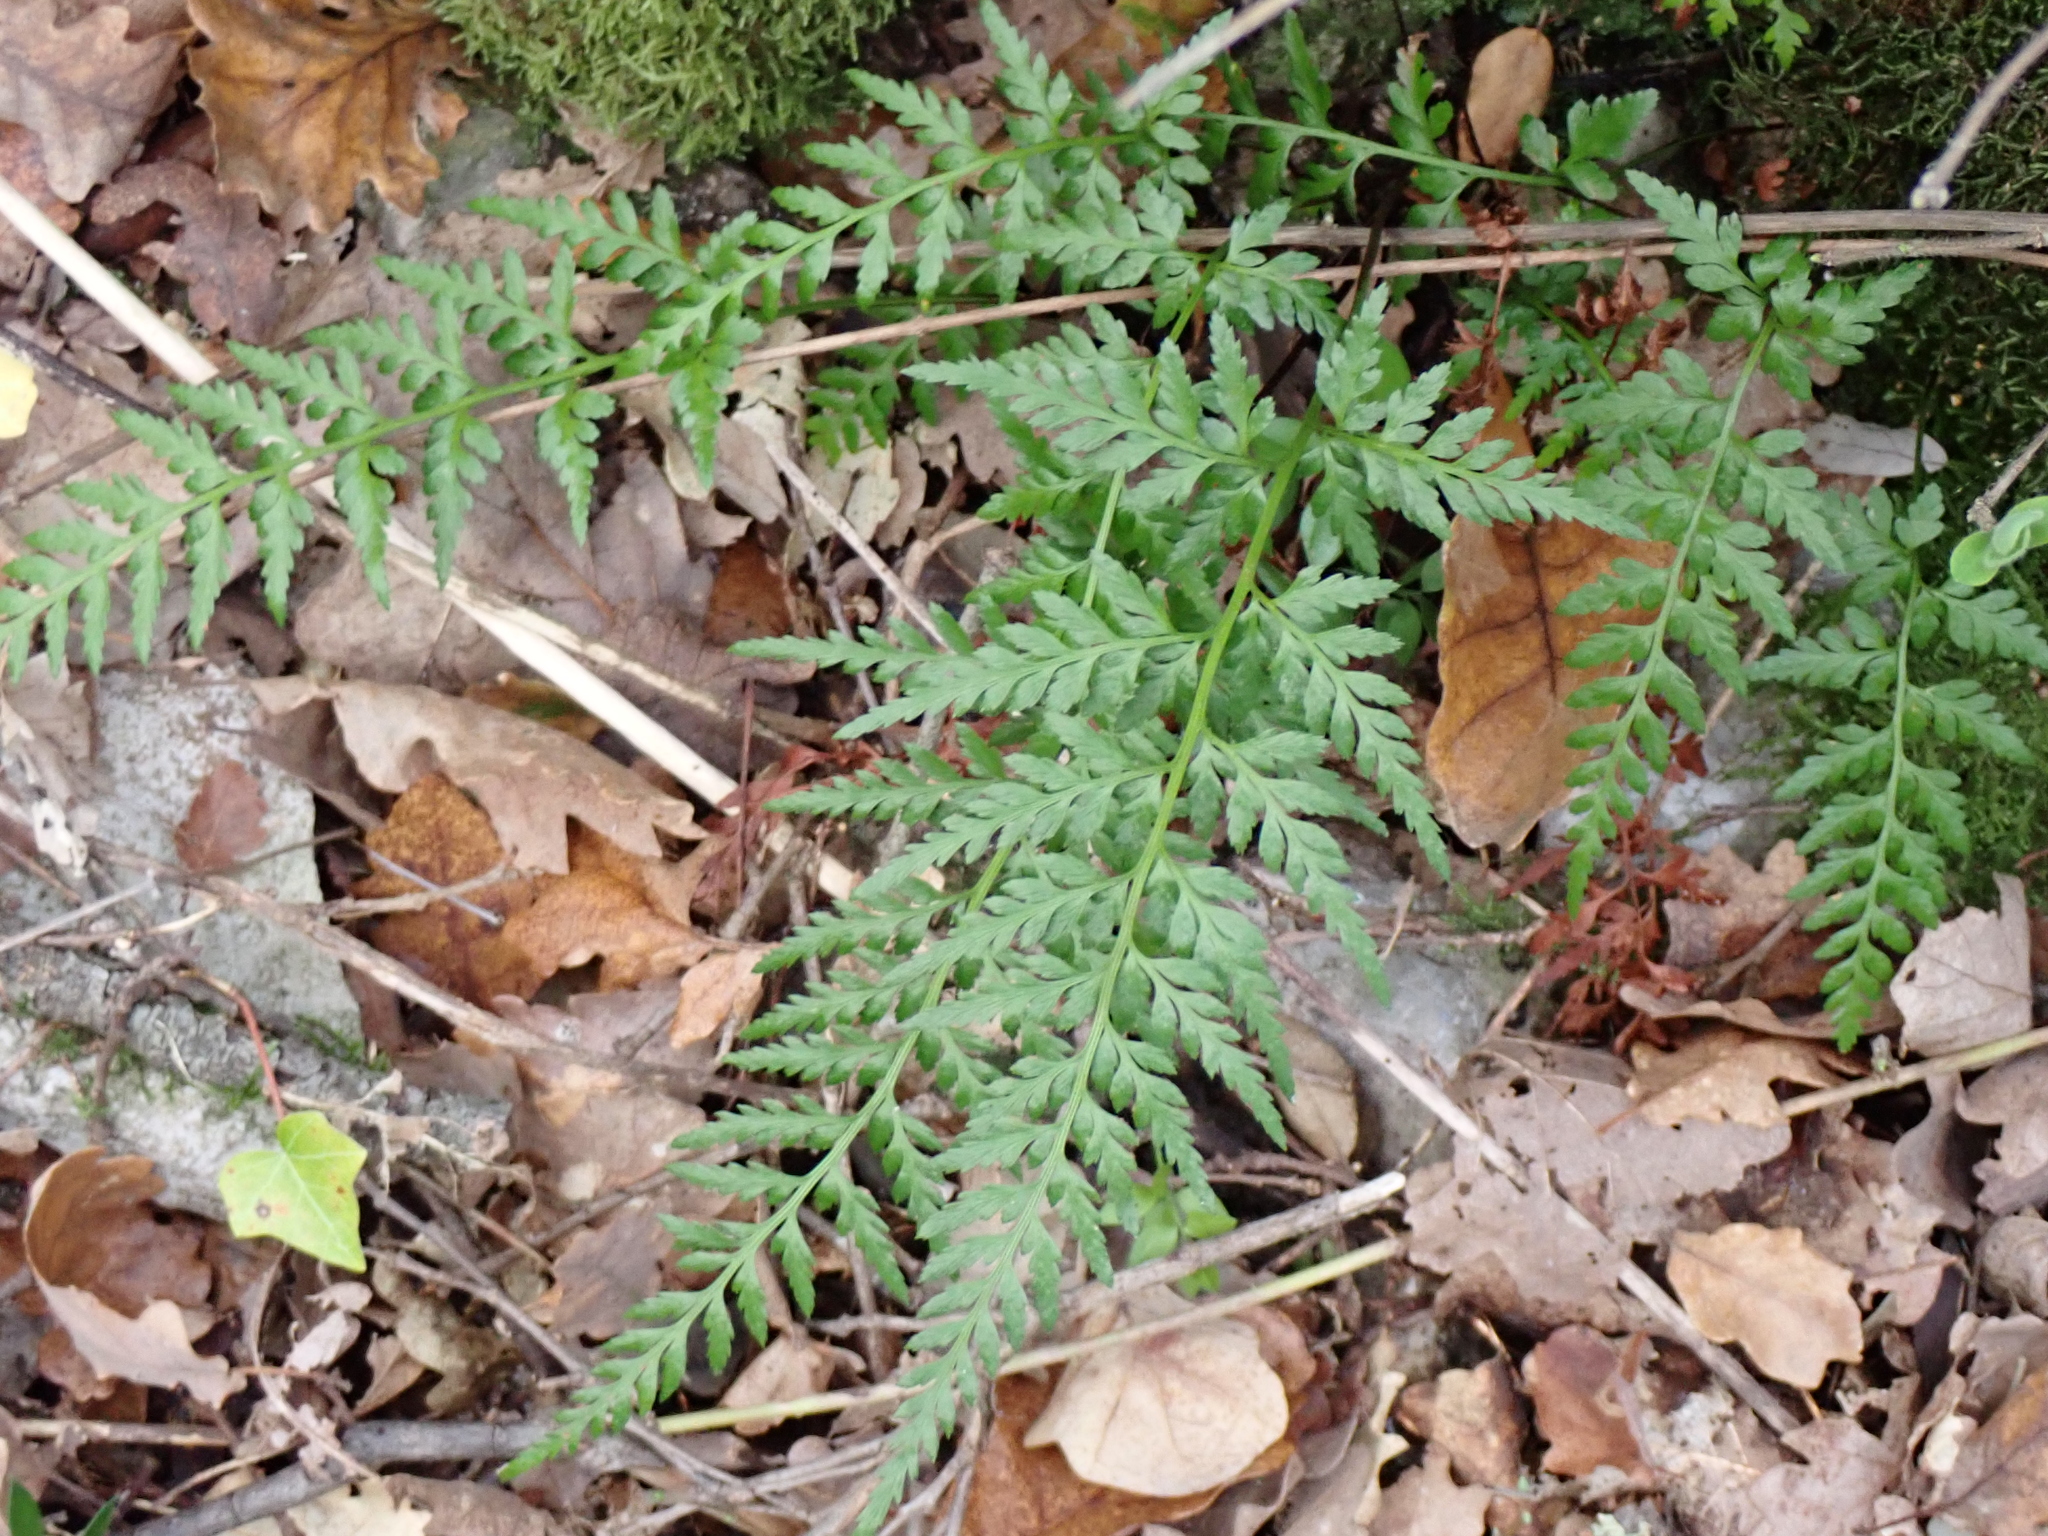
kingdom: Plantae
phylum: Tracheophyta
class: Polypodiopsida
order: Polypodiales
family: Aspleniaceae
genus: Asplenium
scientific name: Asplenium adiantum-nigrum
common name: Black spleenwort
